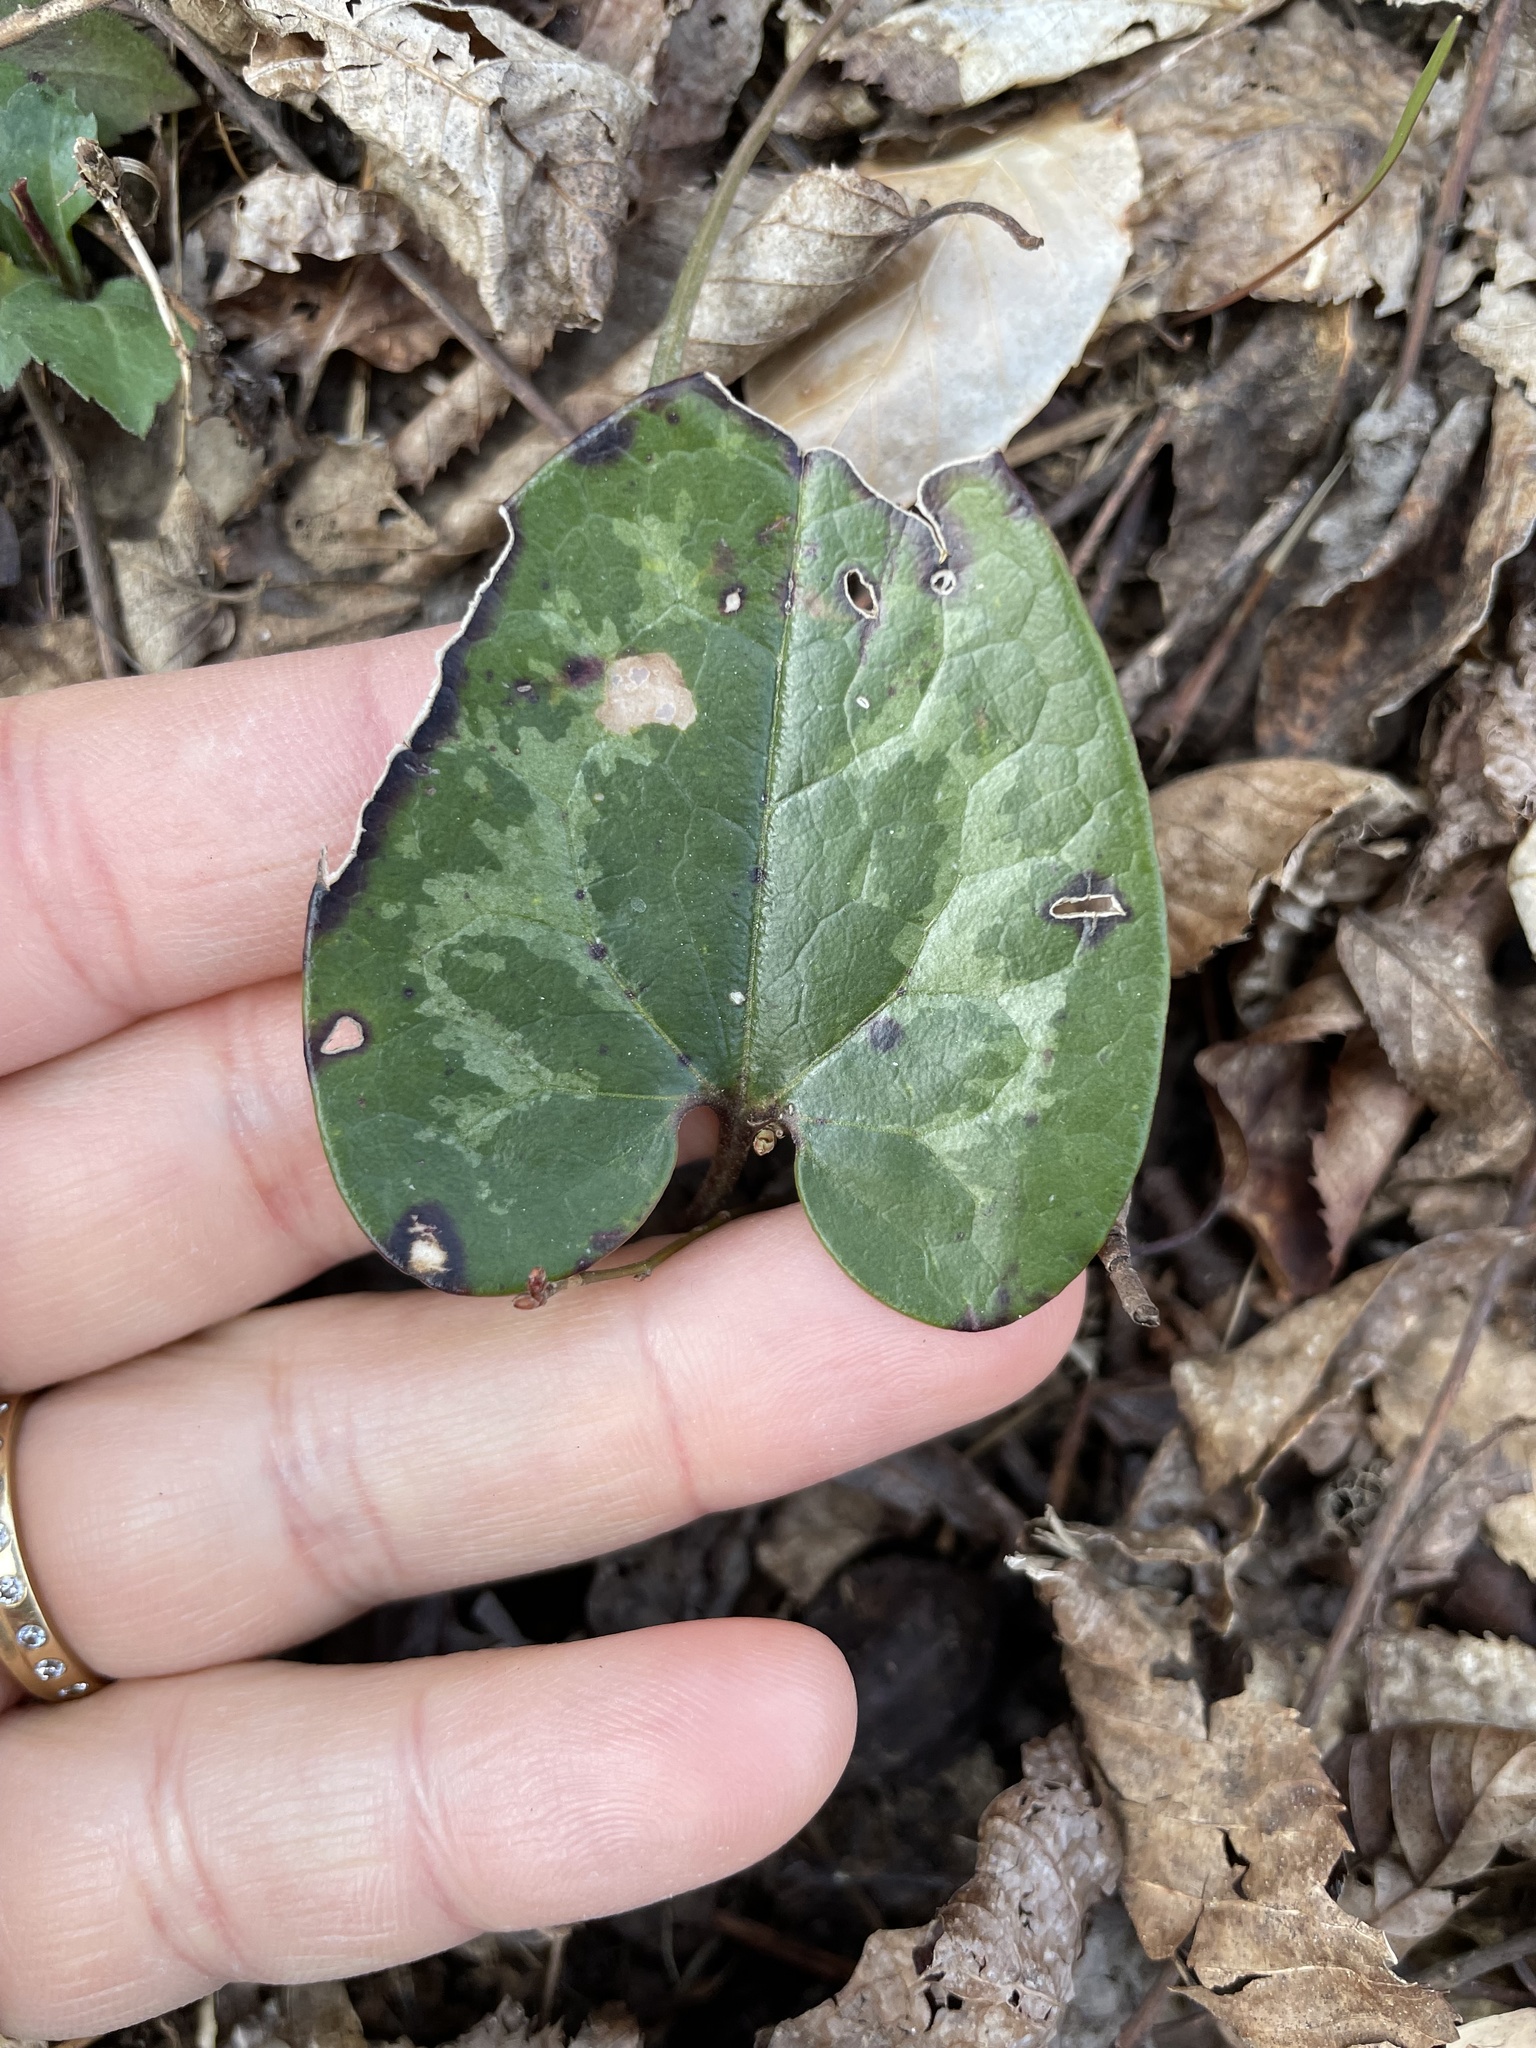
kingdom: Plantae
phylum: Tracheophyta
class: Magnoliopsida
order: Piperales
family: Aristolochiaceae
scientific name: Aristolochiaceae
